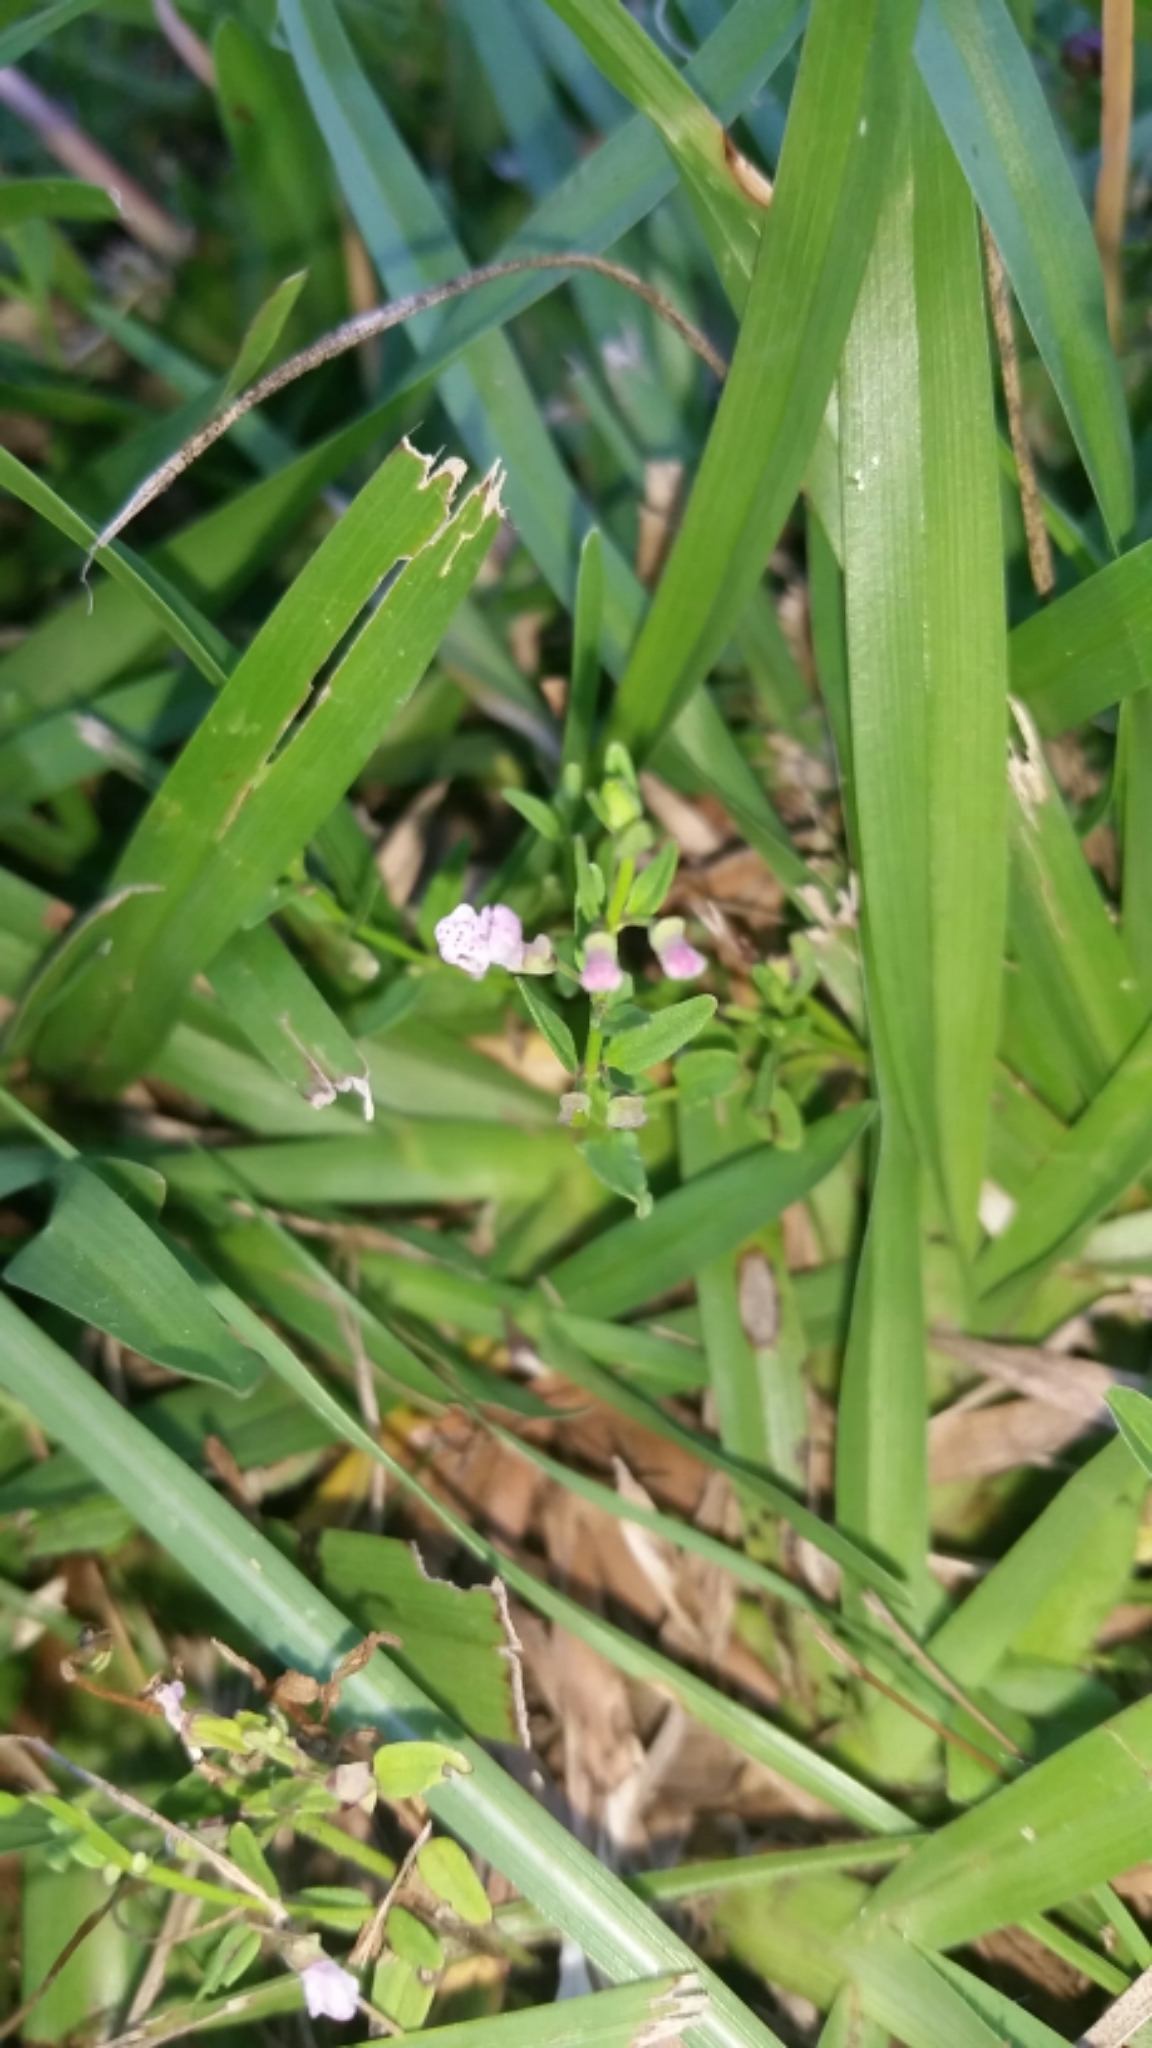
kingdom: Plantae
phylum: Tracheophyta
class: Magnoliopsida
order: Lamiales
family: Lamiaceae
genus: Scutellaria
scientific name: Scutellaria racemosa
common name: South american skullcap
